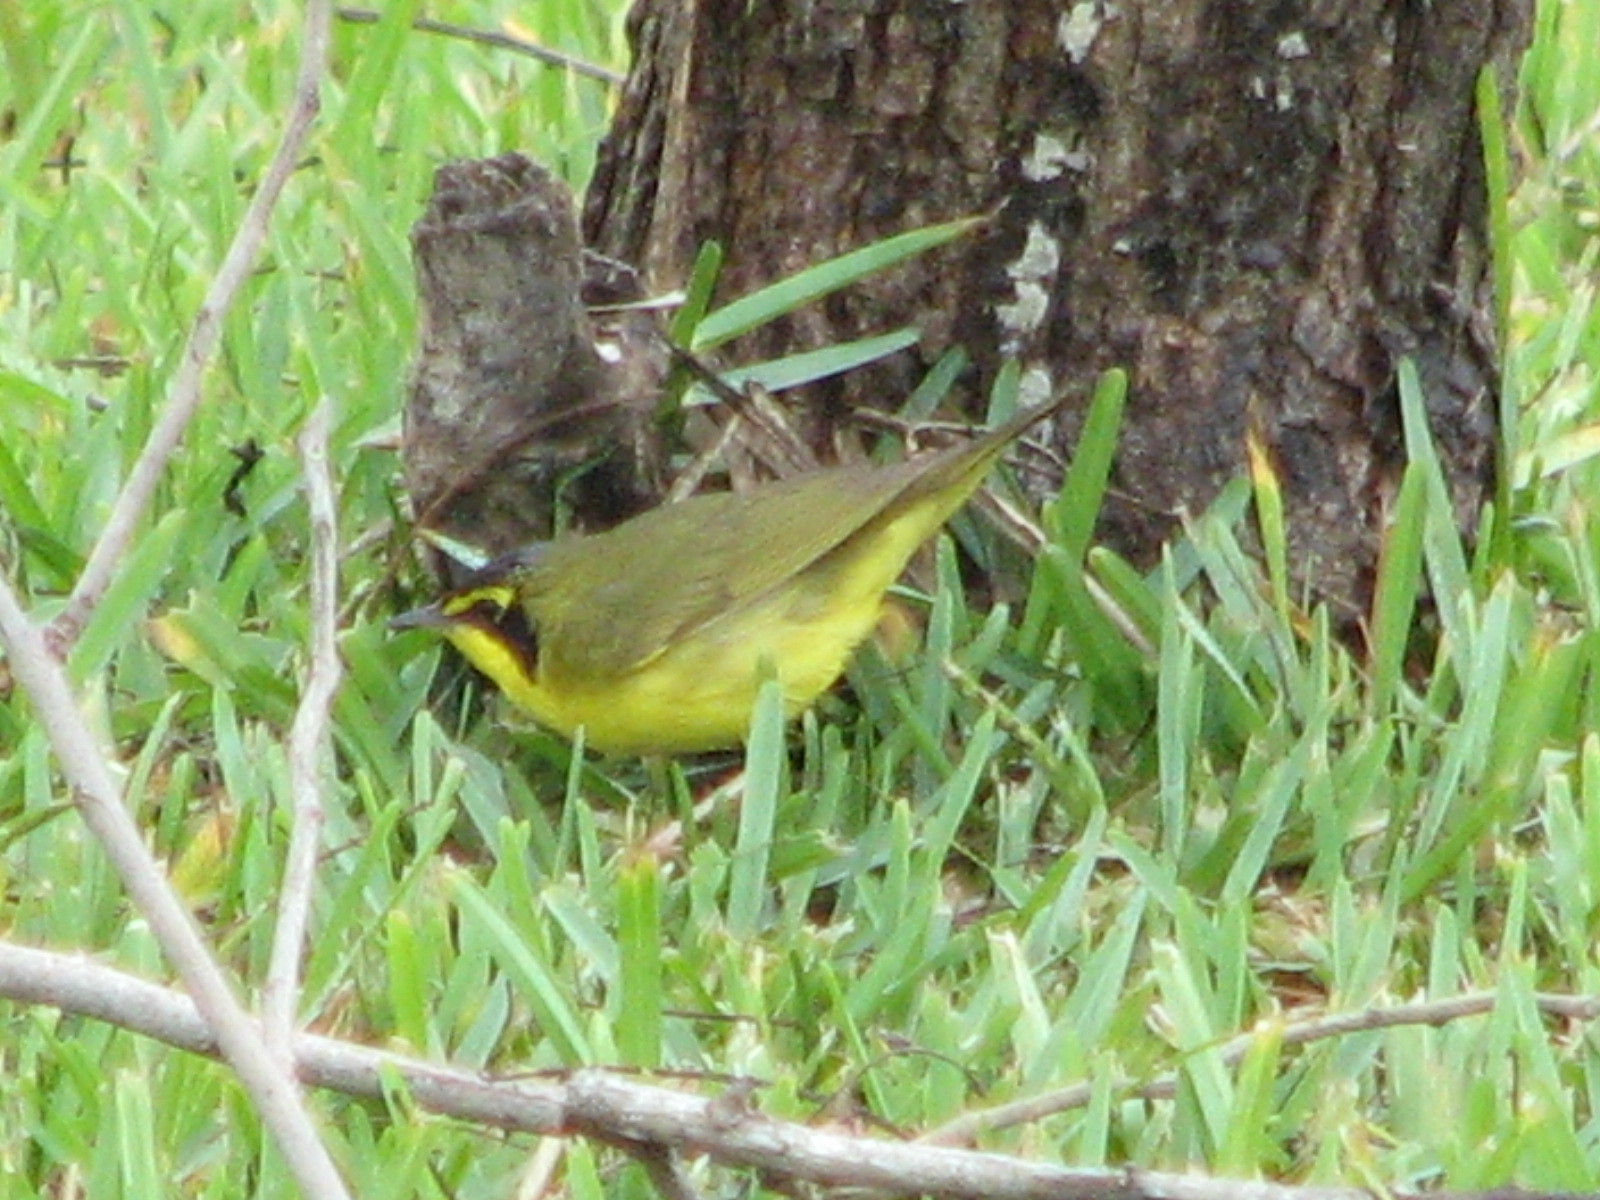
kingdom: Animalia
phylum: Chordata
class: Aves
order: Passeriformes
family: Parulidae
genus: Geothlypis
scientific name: Geothlypis formosa
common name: Kentucky warbler
